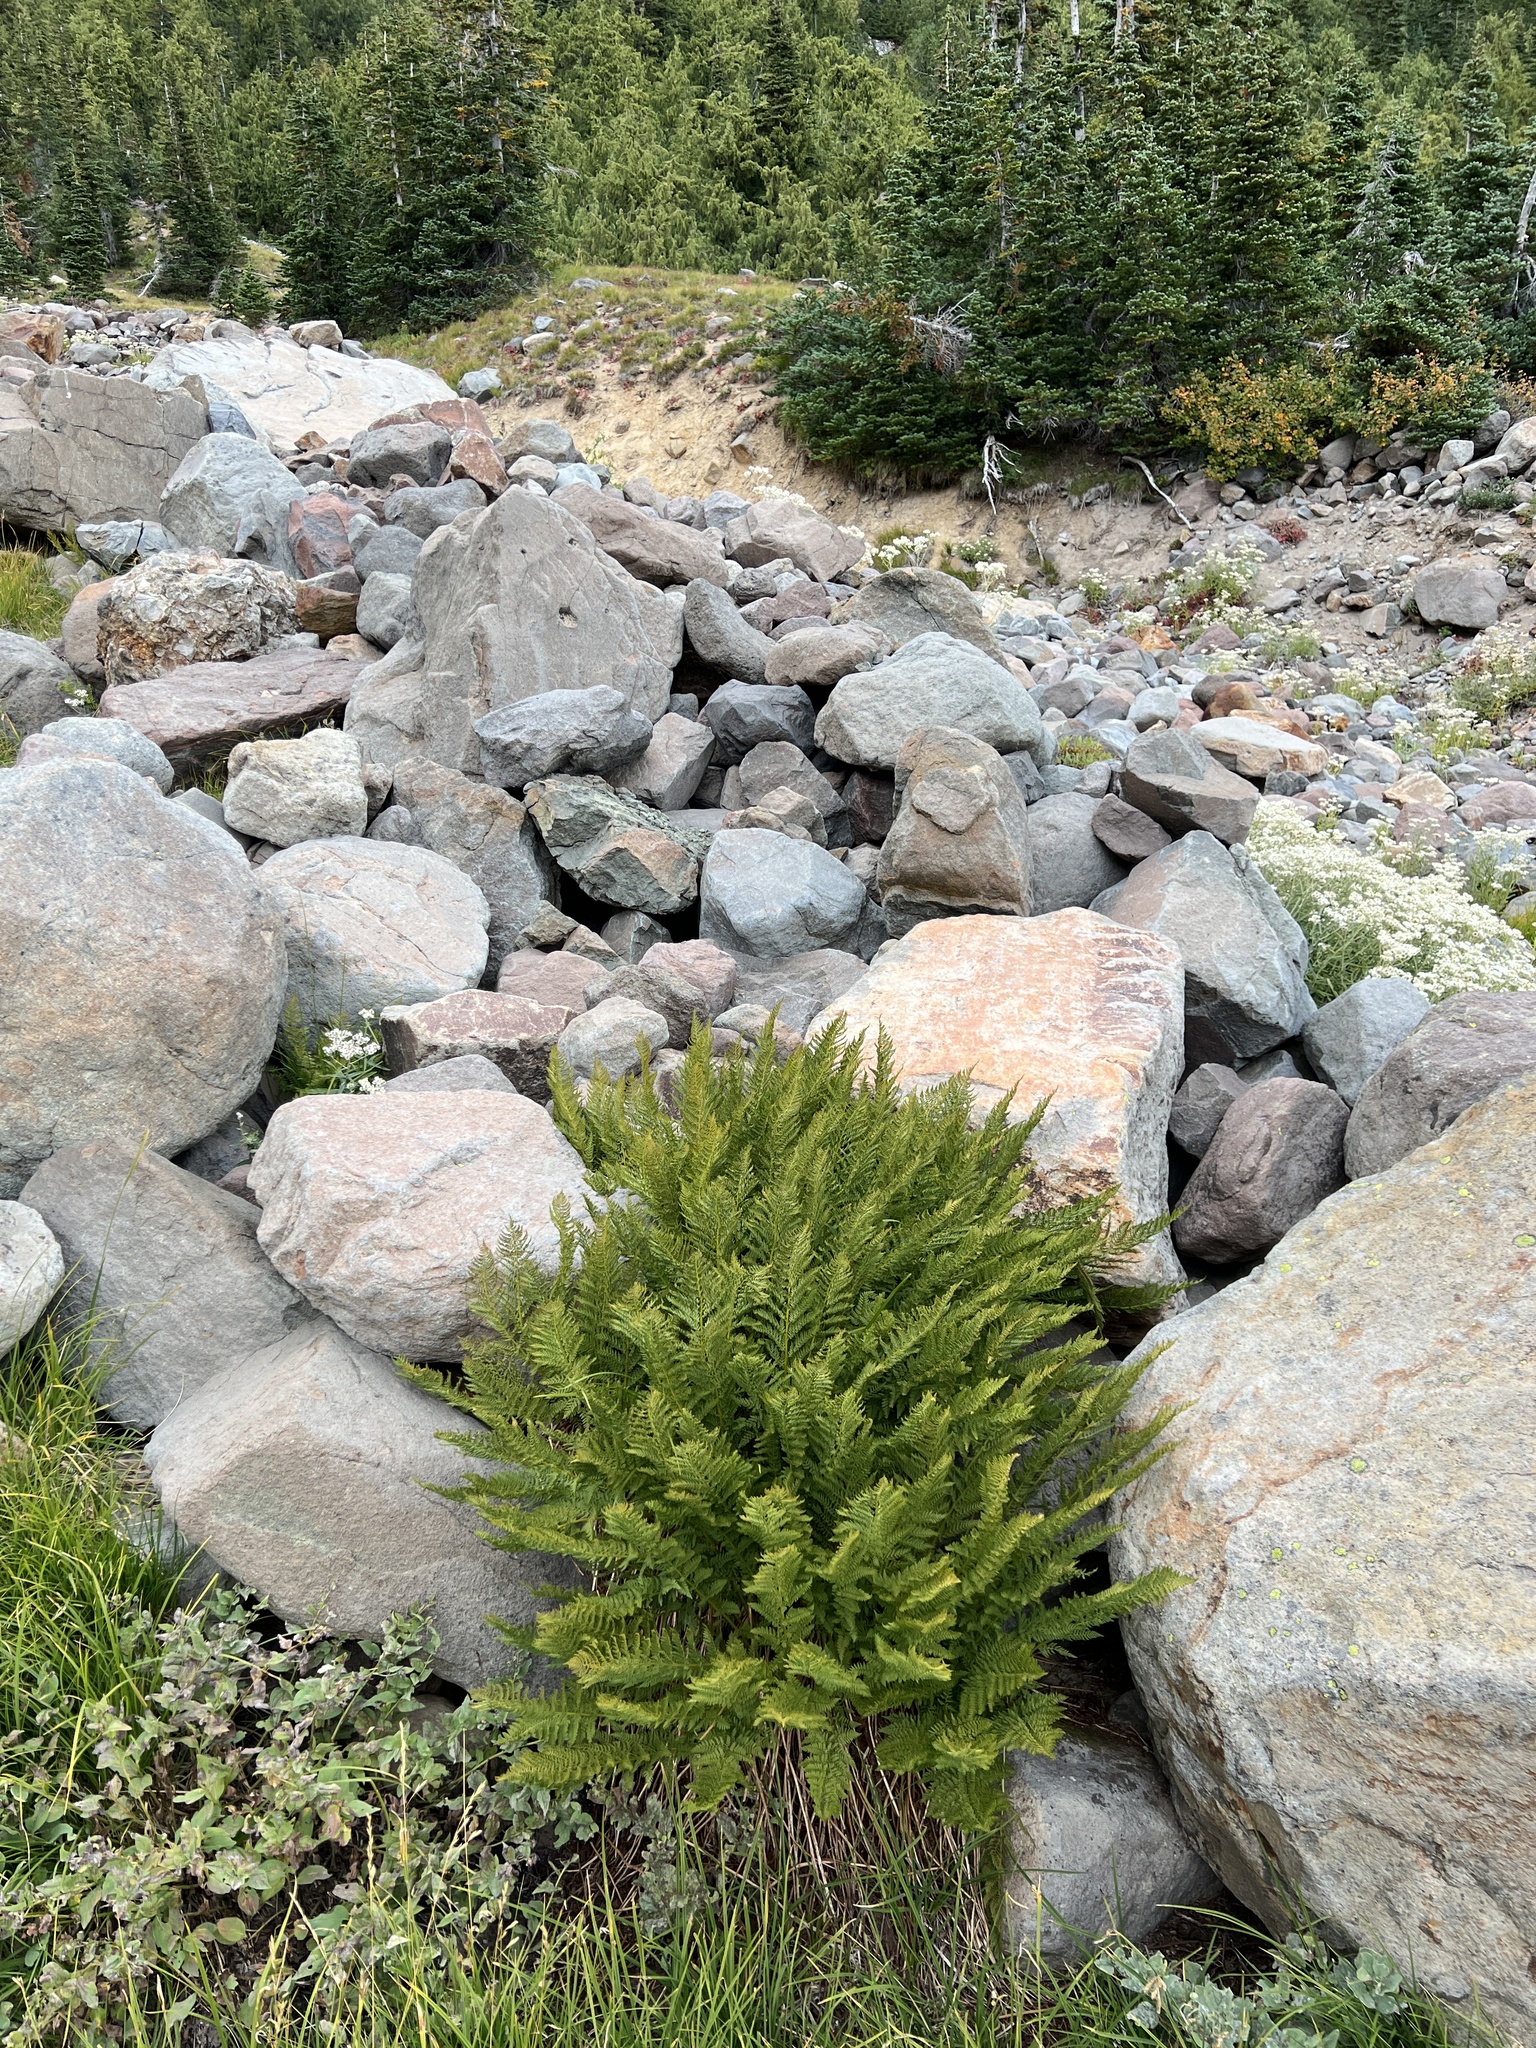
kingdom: Plantae
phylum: Tracheophyta
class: Polypodiopsida
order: Polypodiales
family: Athyriaceae
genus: Athyrium
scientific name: Athyrium americanum
